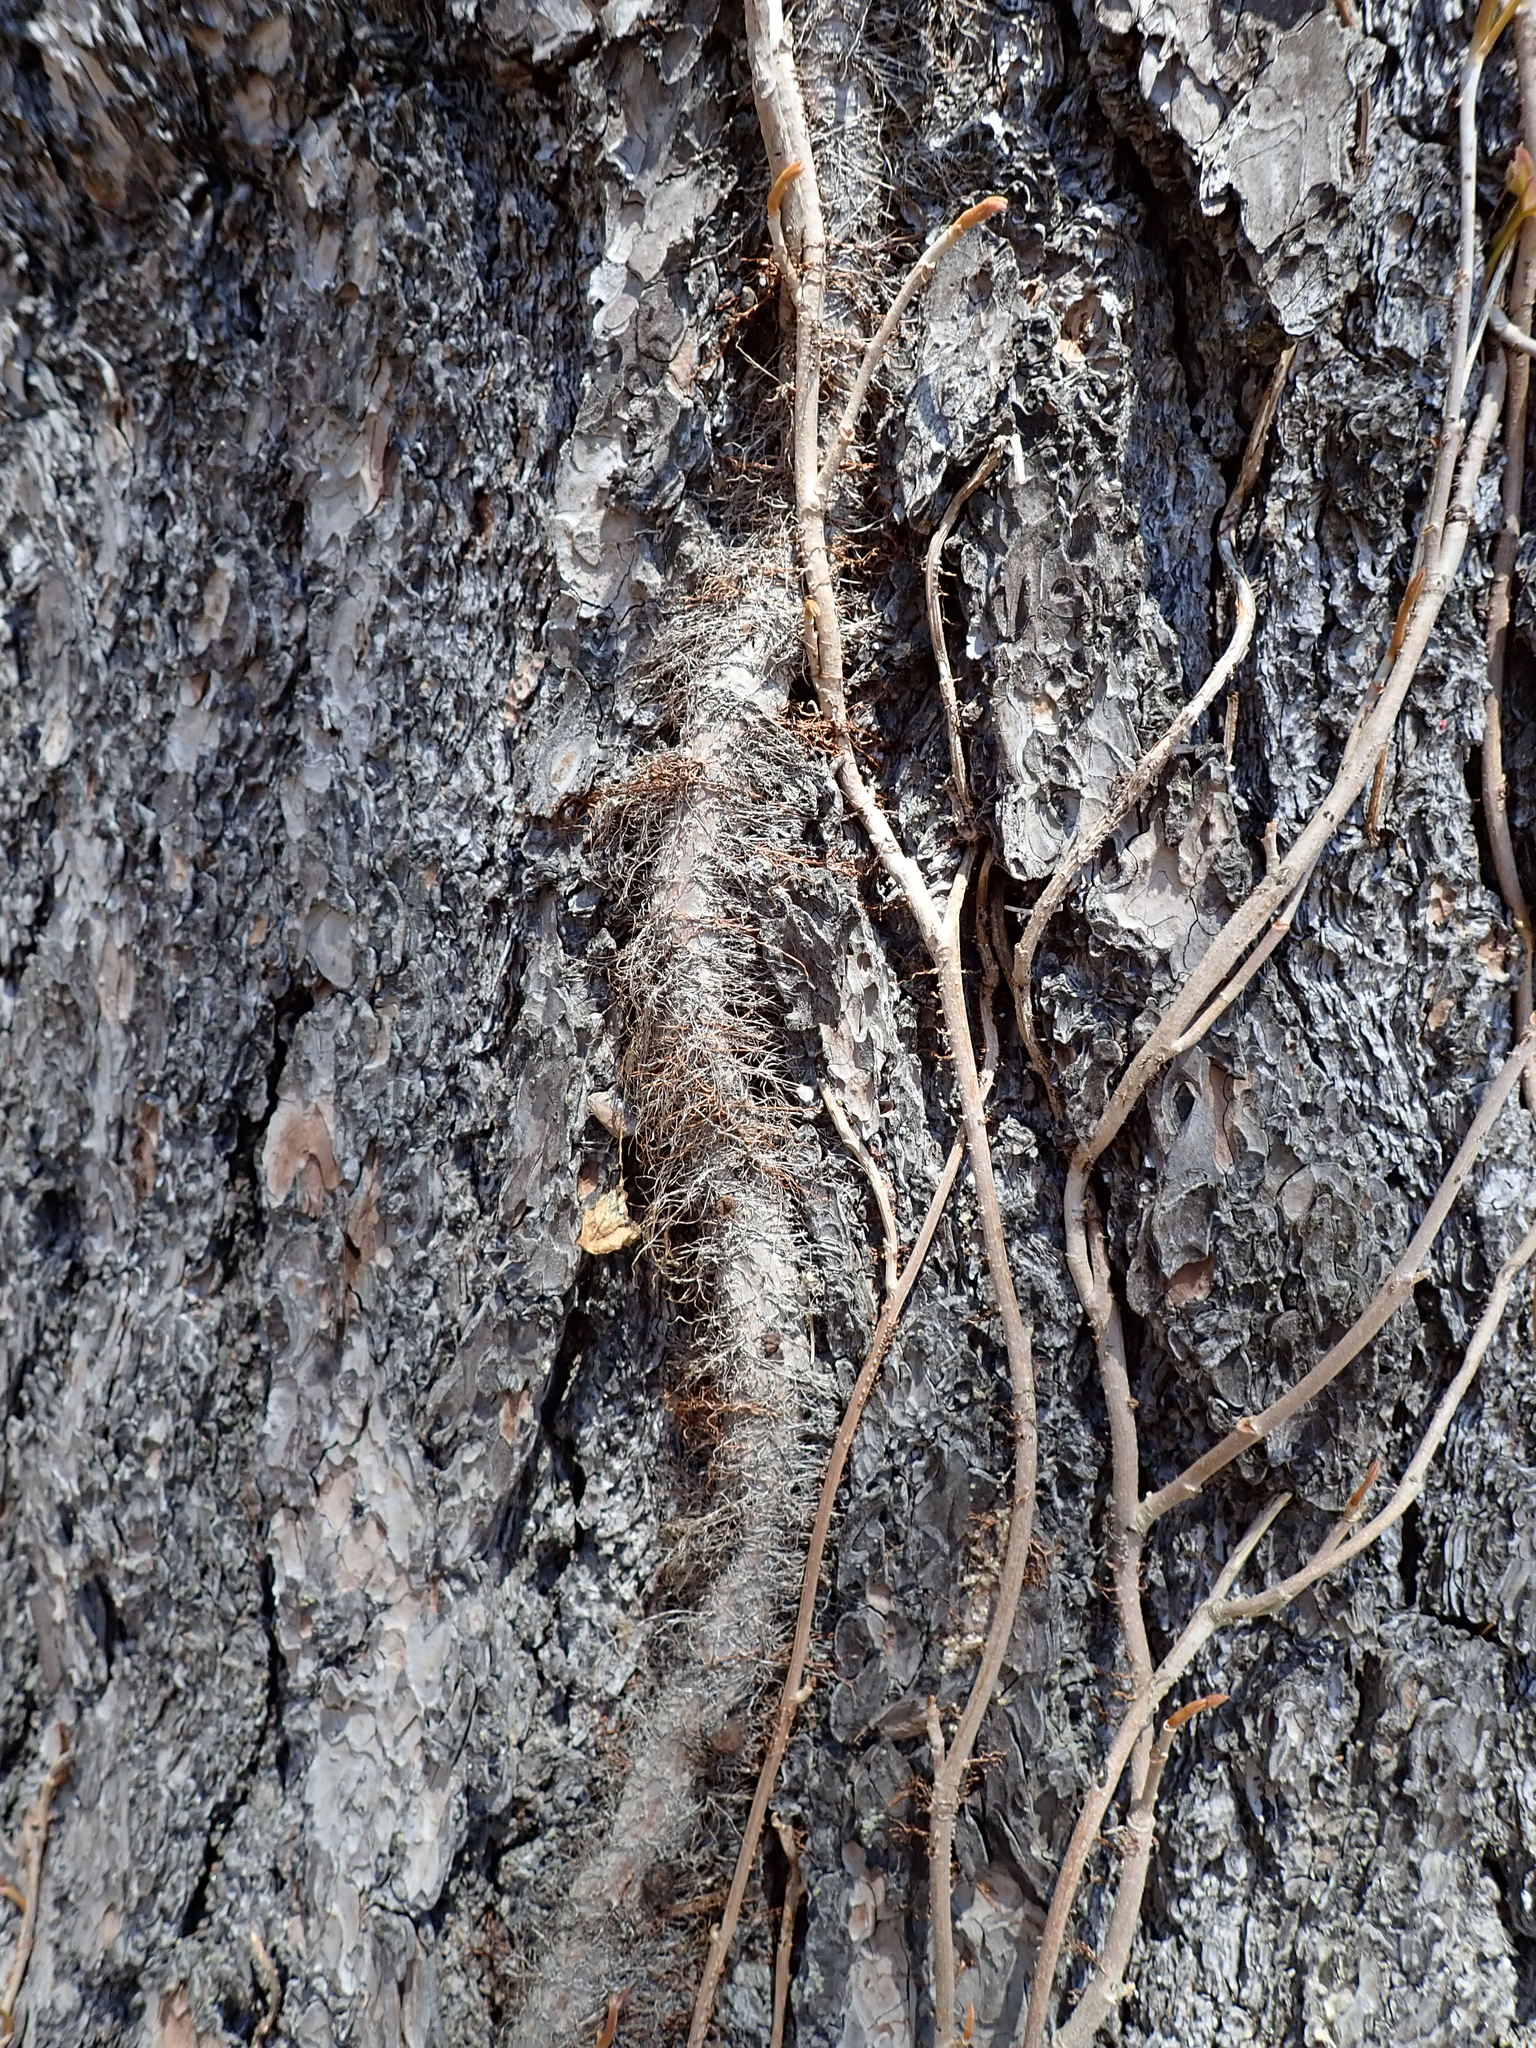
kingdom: Plantae
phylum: Tracheophyta
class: Magnoliopsida
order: Sapindales
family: Anacardiaceae
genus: Toxicodendron
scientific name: Toxicodendron radicans
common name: Poison ivy
